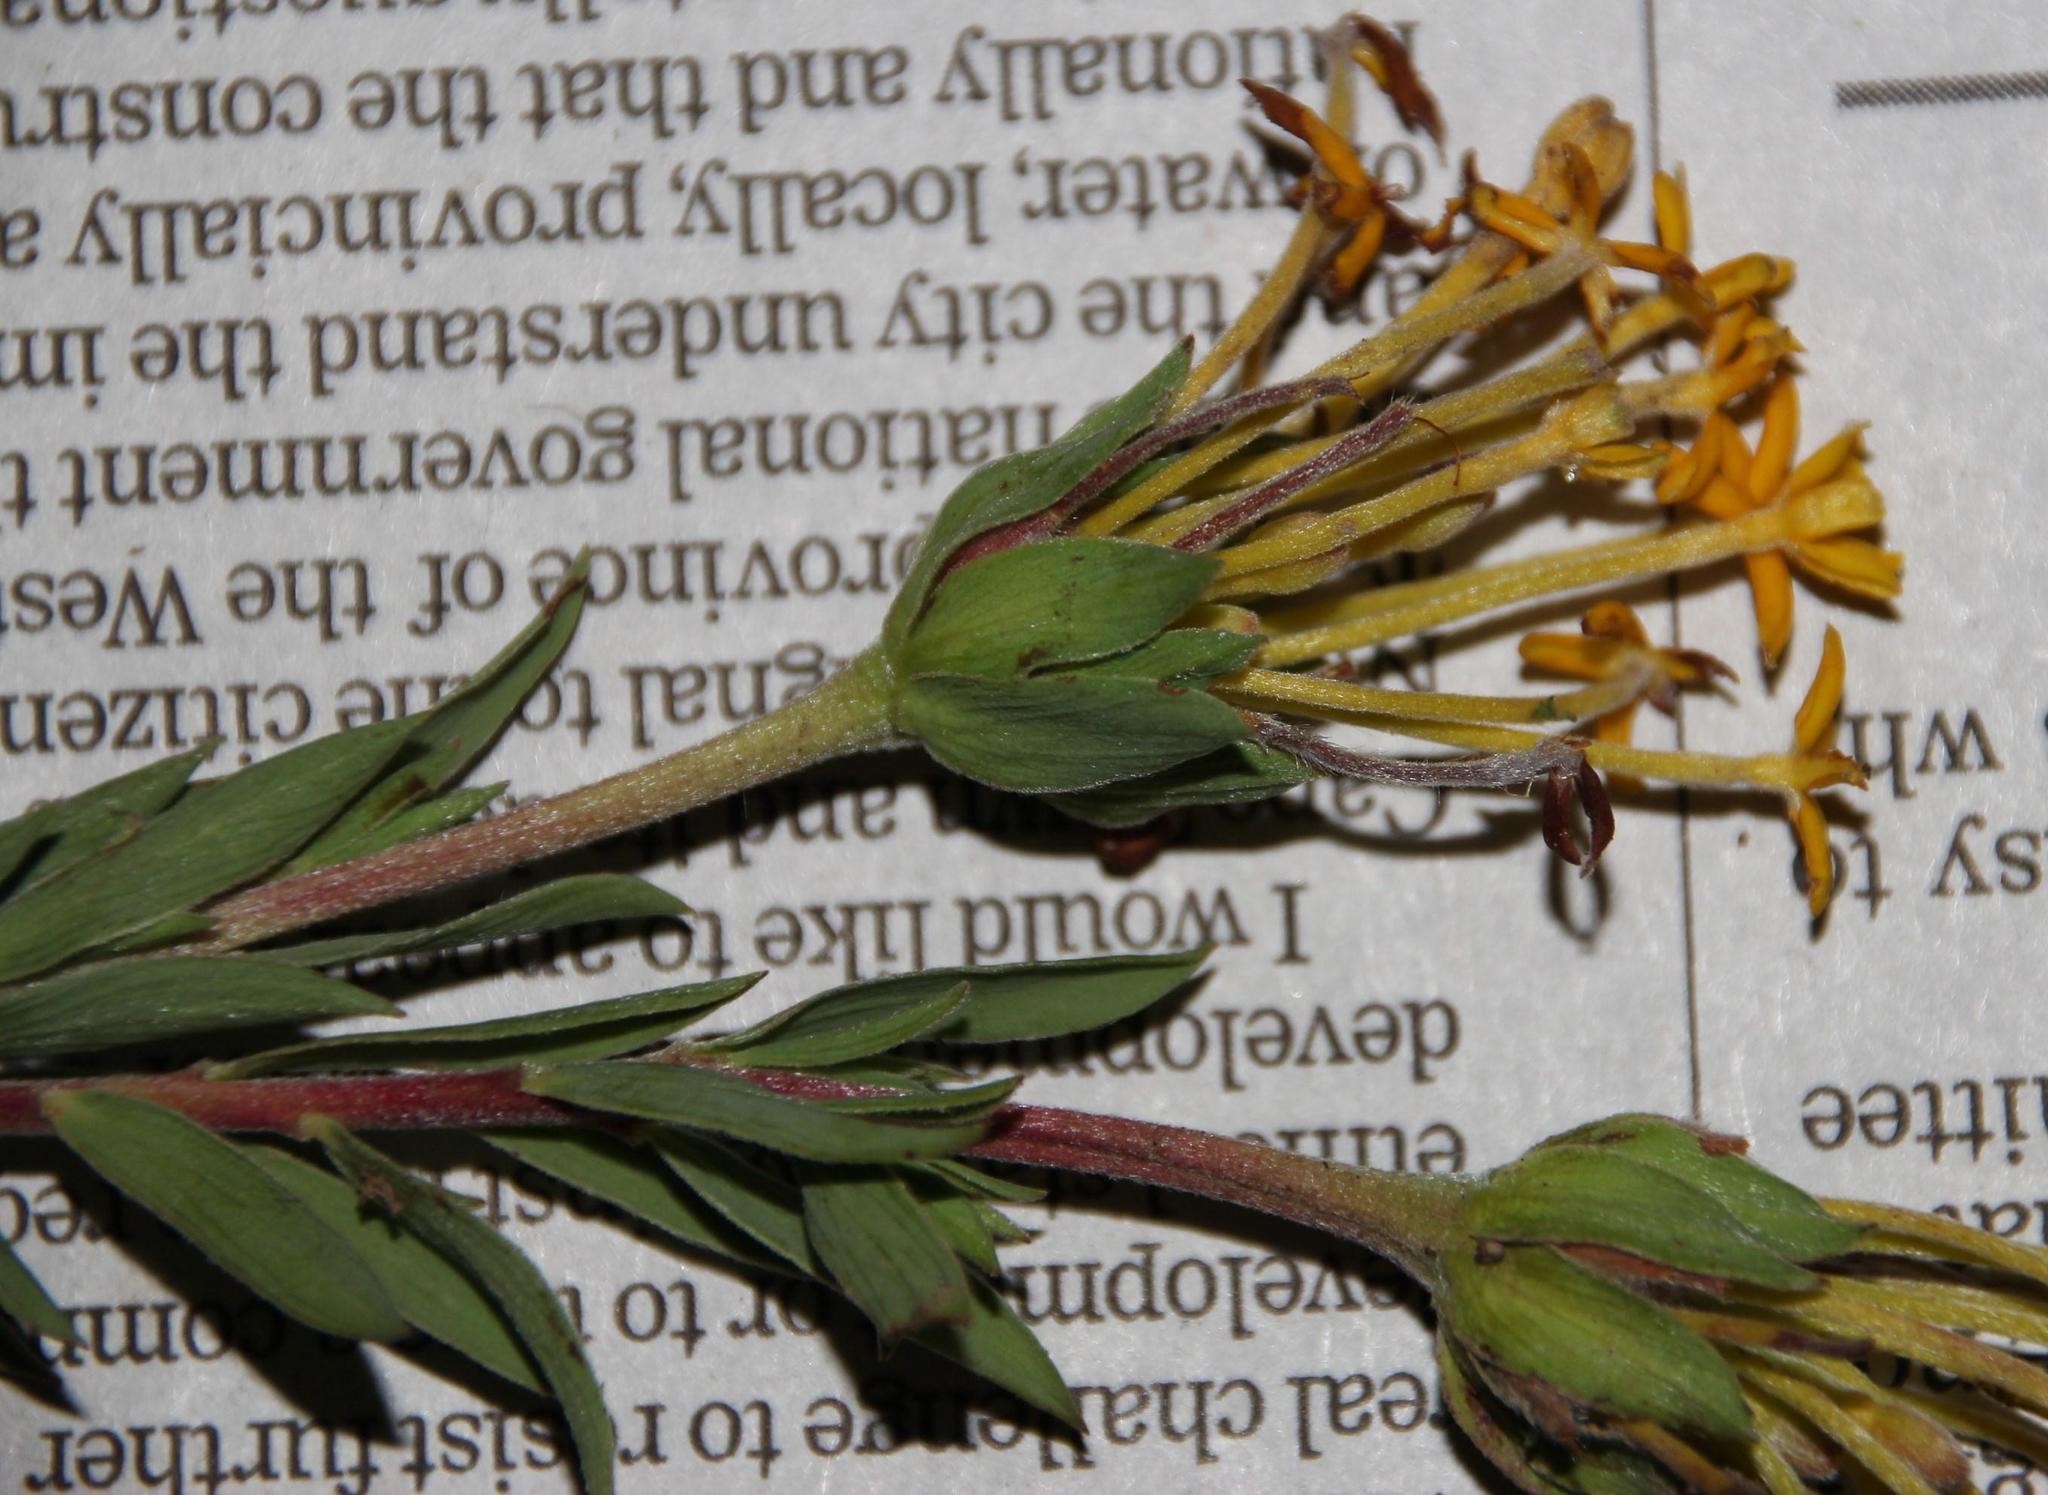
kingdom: Plantae
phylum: Tracheophyta
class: Magnoliopsida
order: Malvales
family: Thymelaeaceae
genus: Gnidia
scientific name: Gnidia capitata
